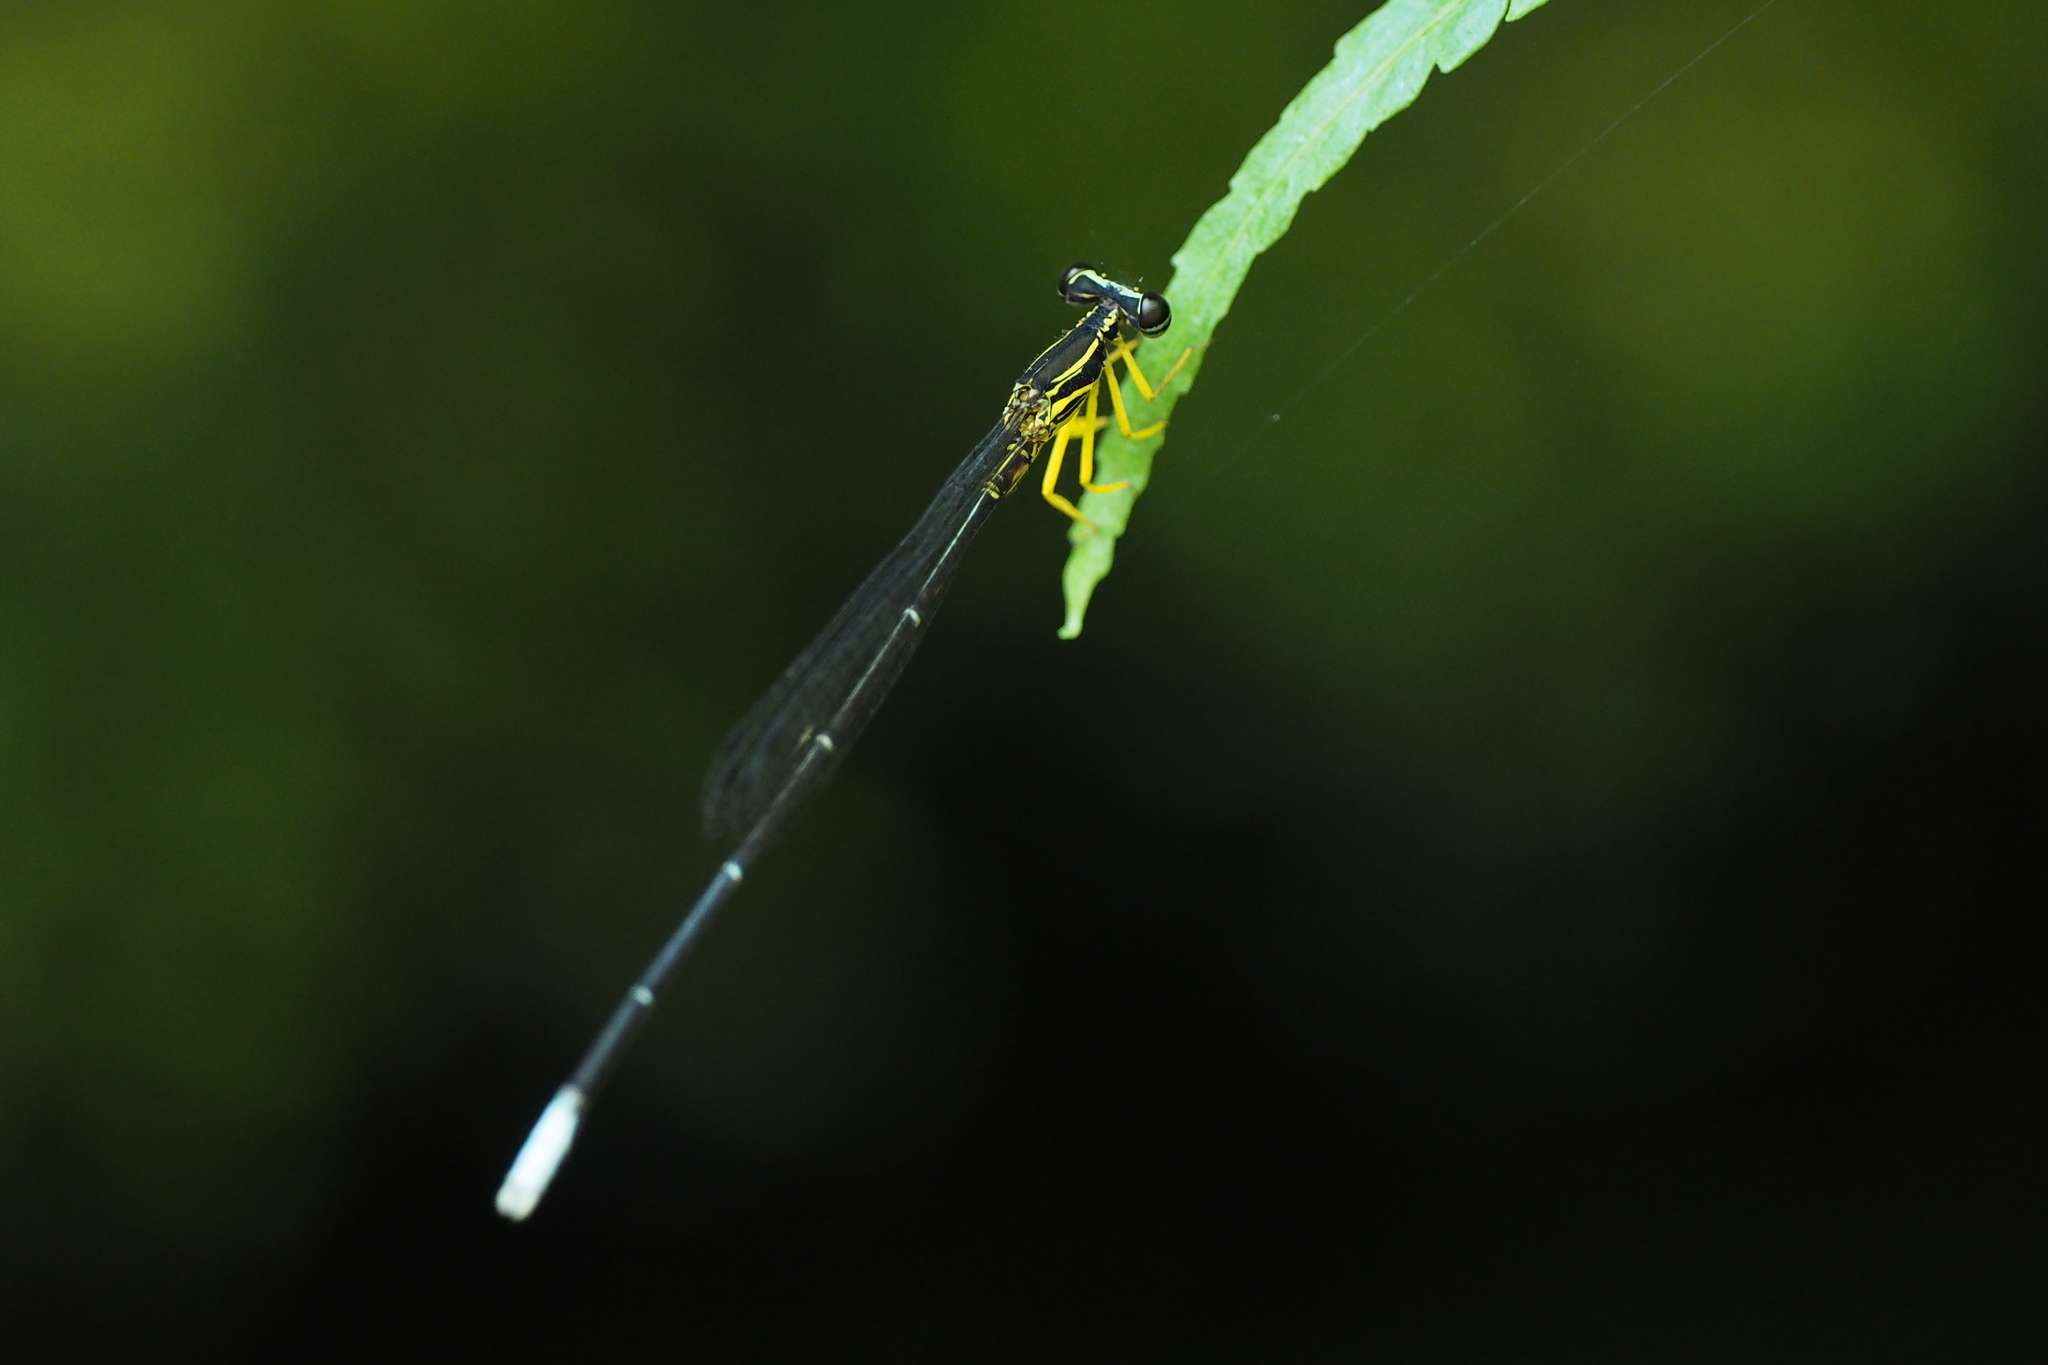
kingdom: Animalia
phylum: Arthropoda
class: Insecta
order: Odonata
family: Platycnemididae
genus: Copera
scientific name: Copera marginipes
